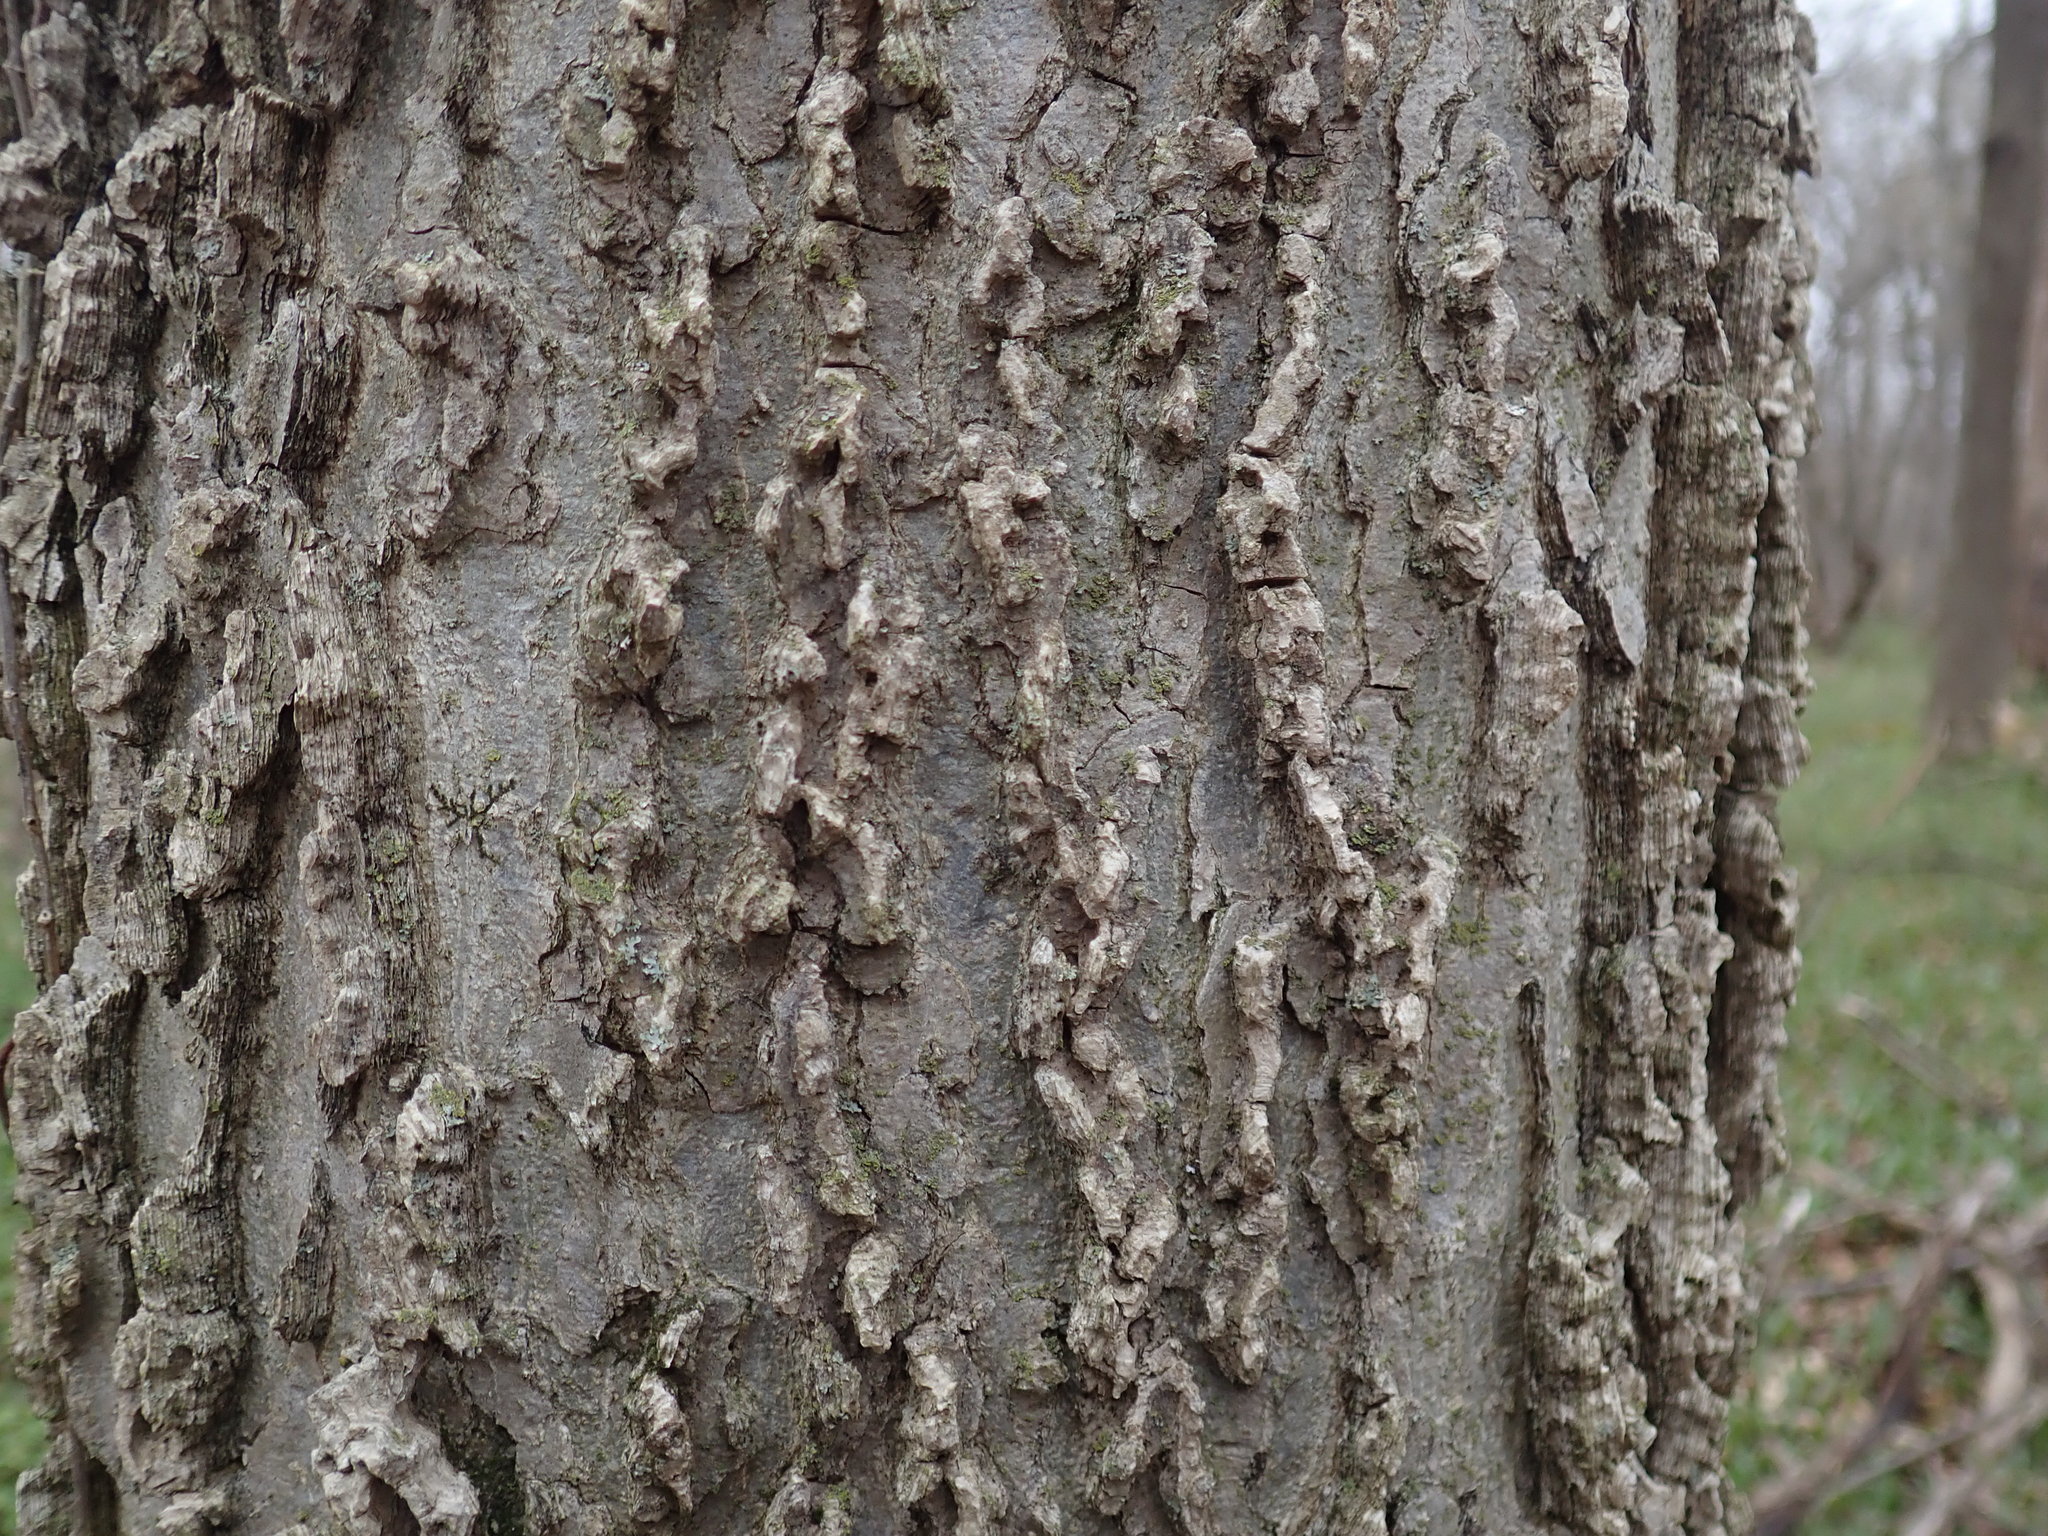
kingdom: Plantae
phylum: Tracheophyta
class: Magnoliopsida
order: Rosales
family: Cannabaceae
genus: Celtis
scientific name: Celtis occidentalis
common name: Common hackberry
